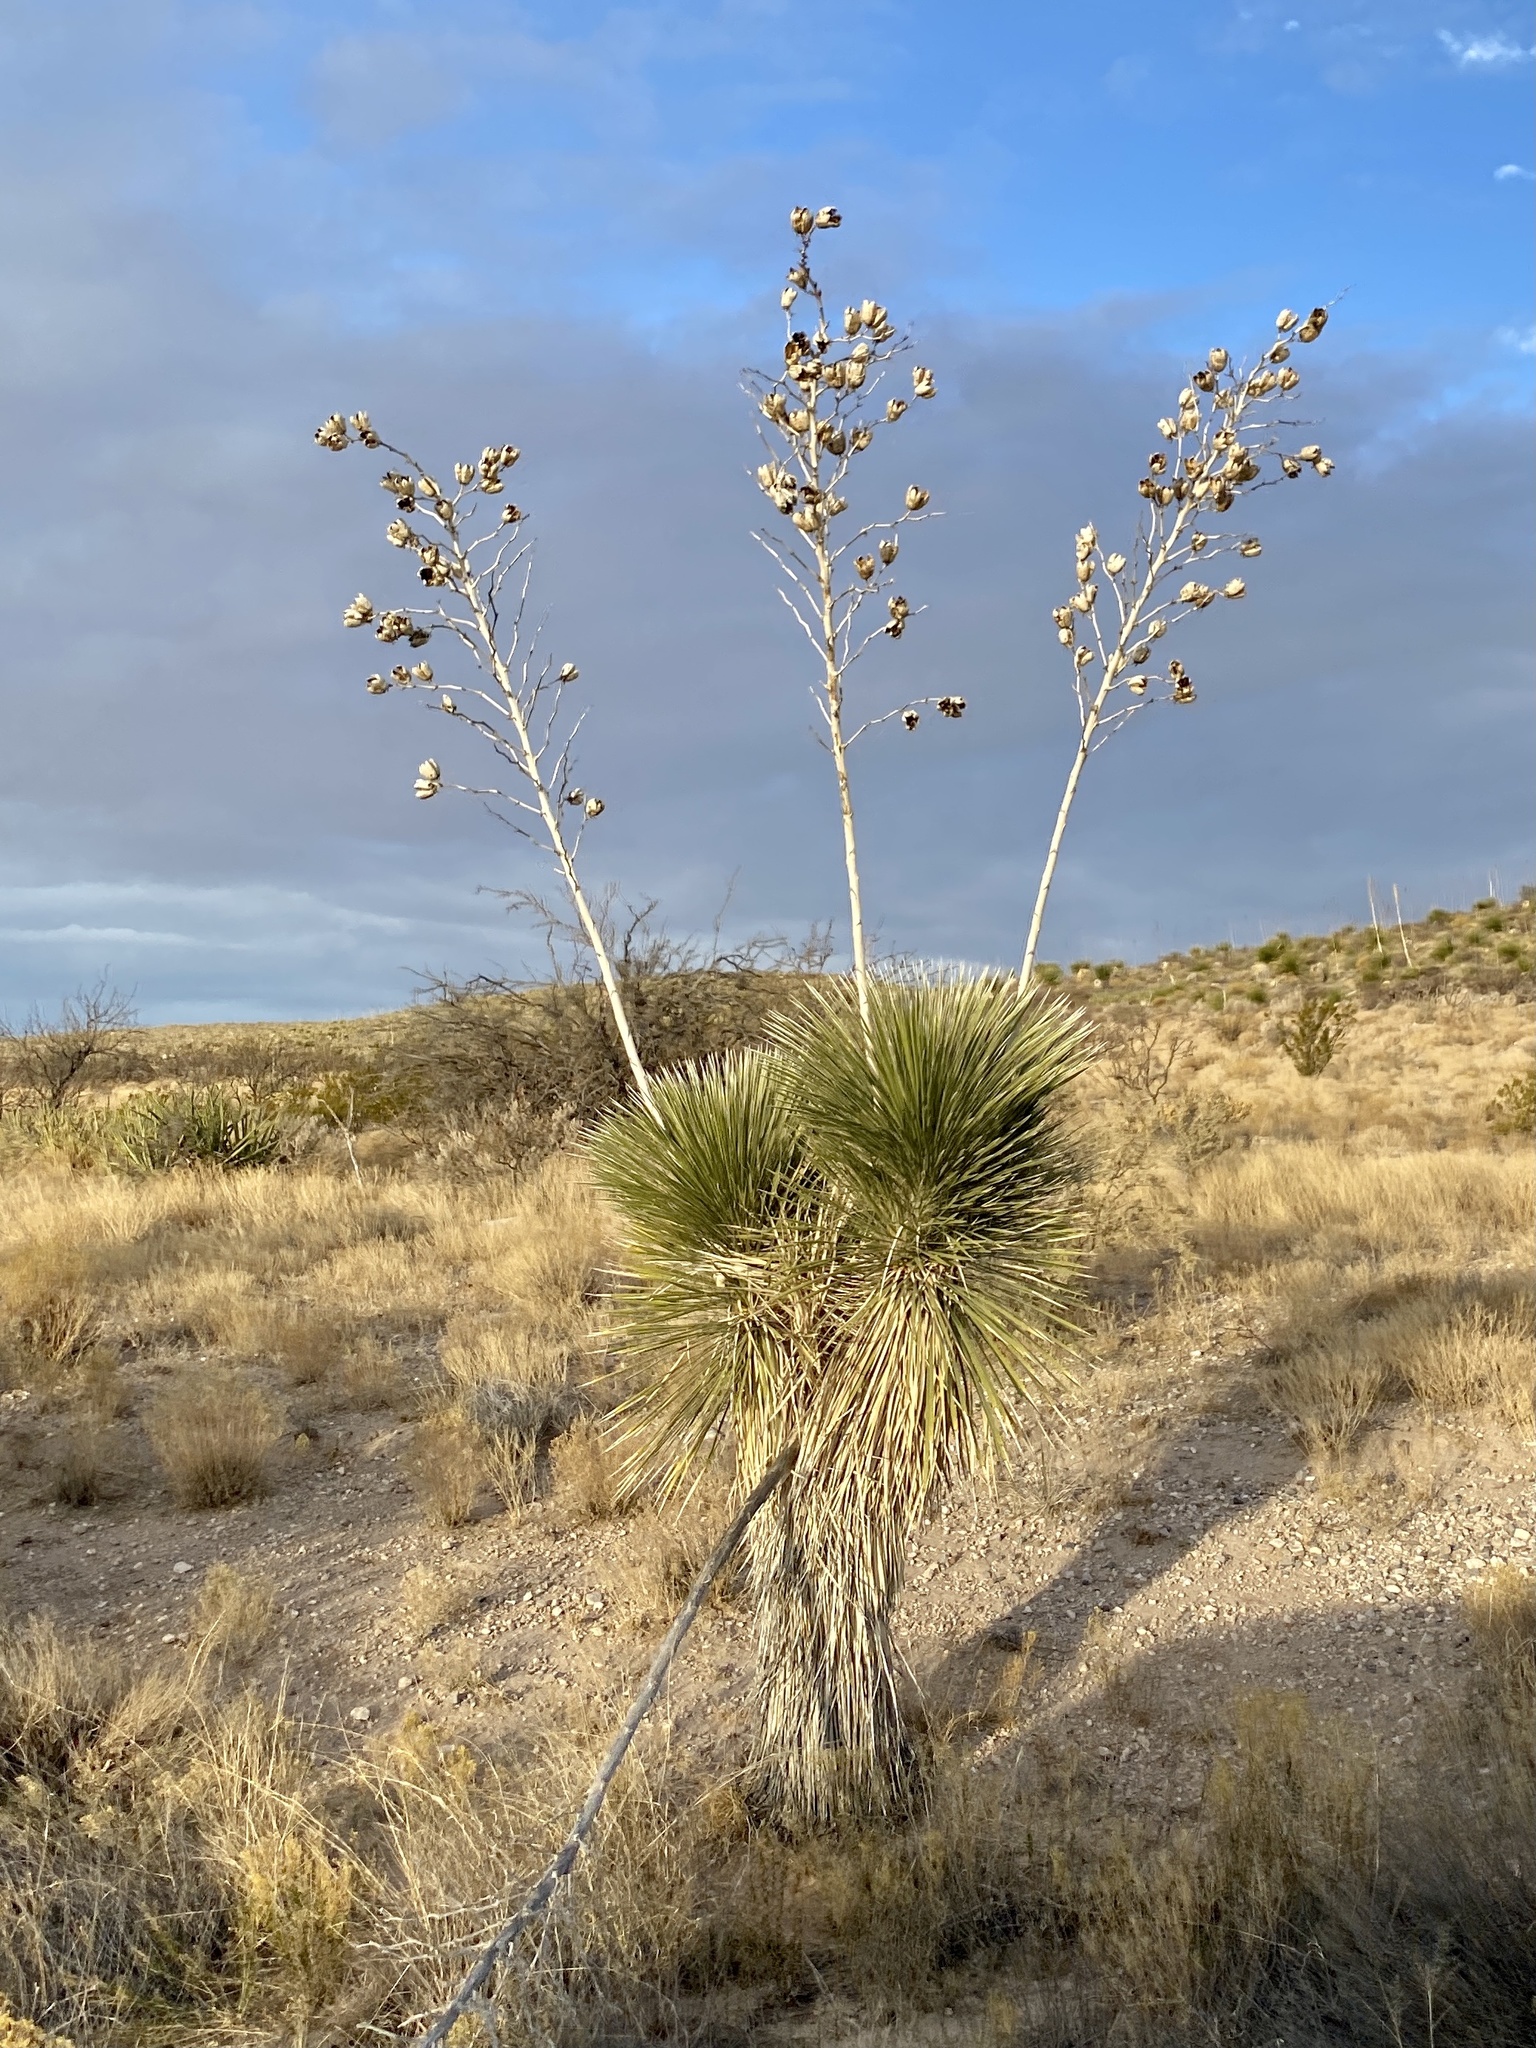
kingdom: Plantae
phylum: Tracheophyta
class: Liliopsida
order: Asparagales
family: Asparagaceae
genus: Yucca
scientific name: Yucca elata
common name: Palmella
